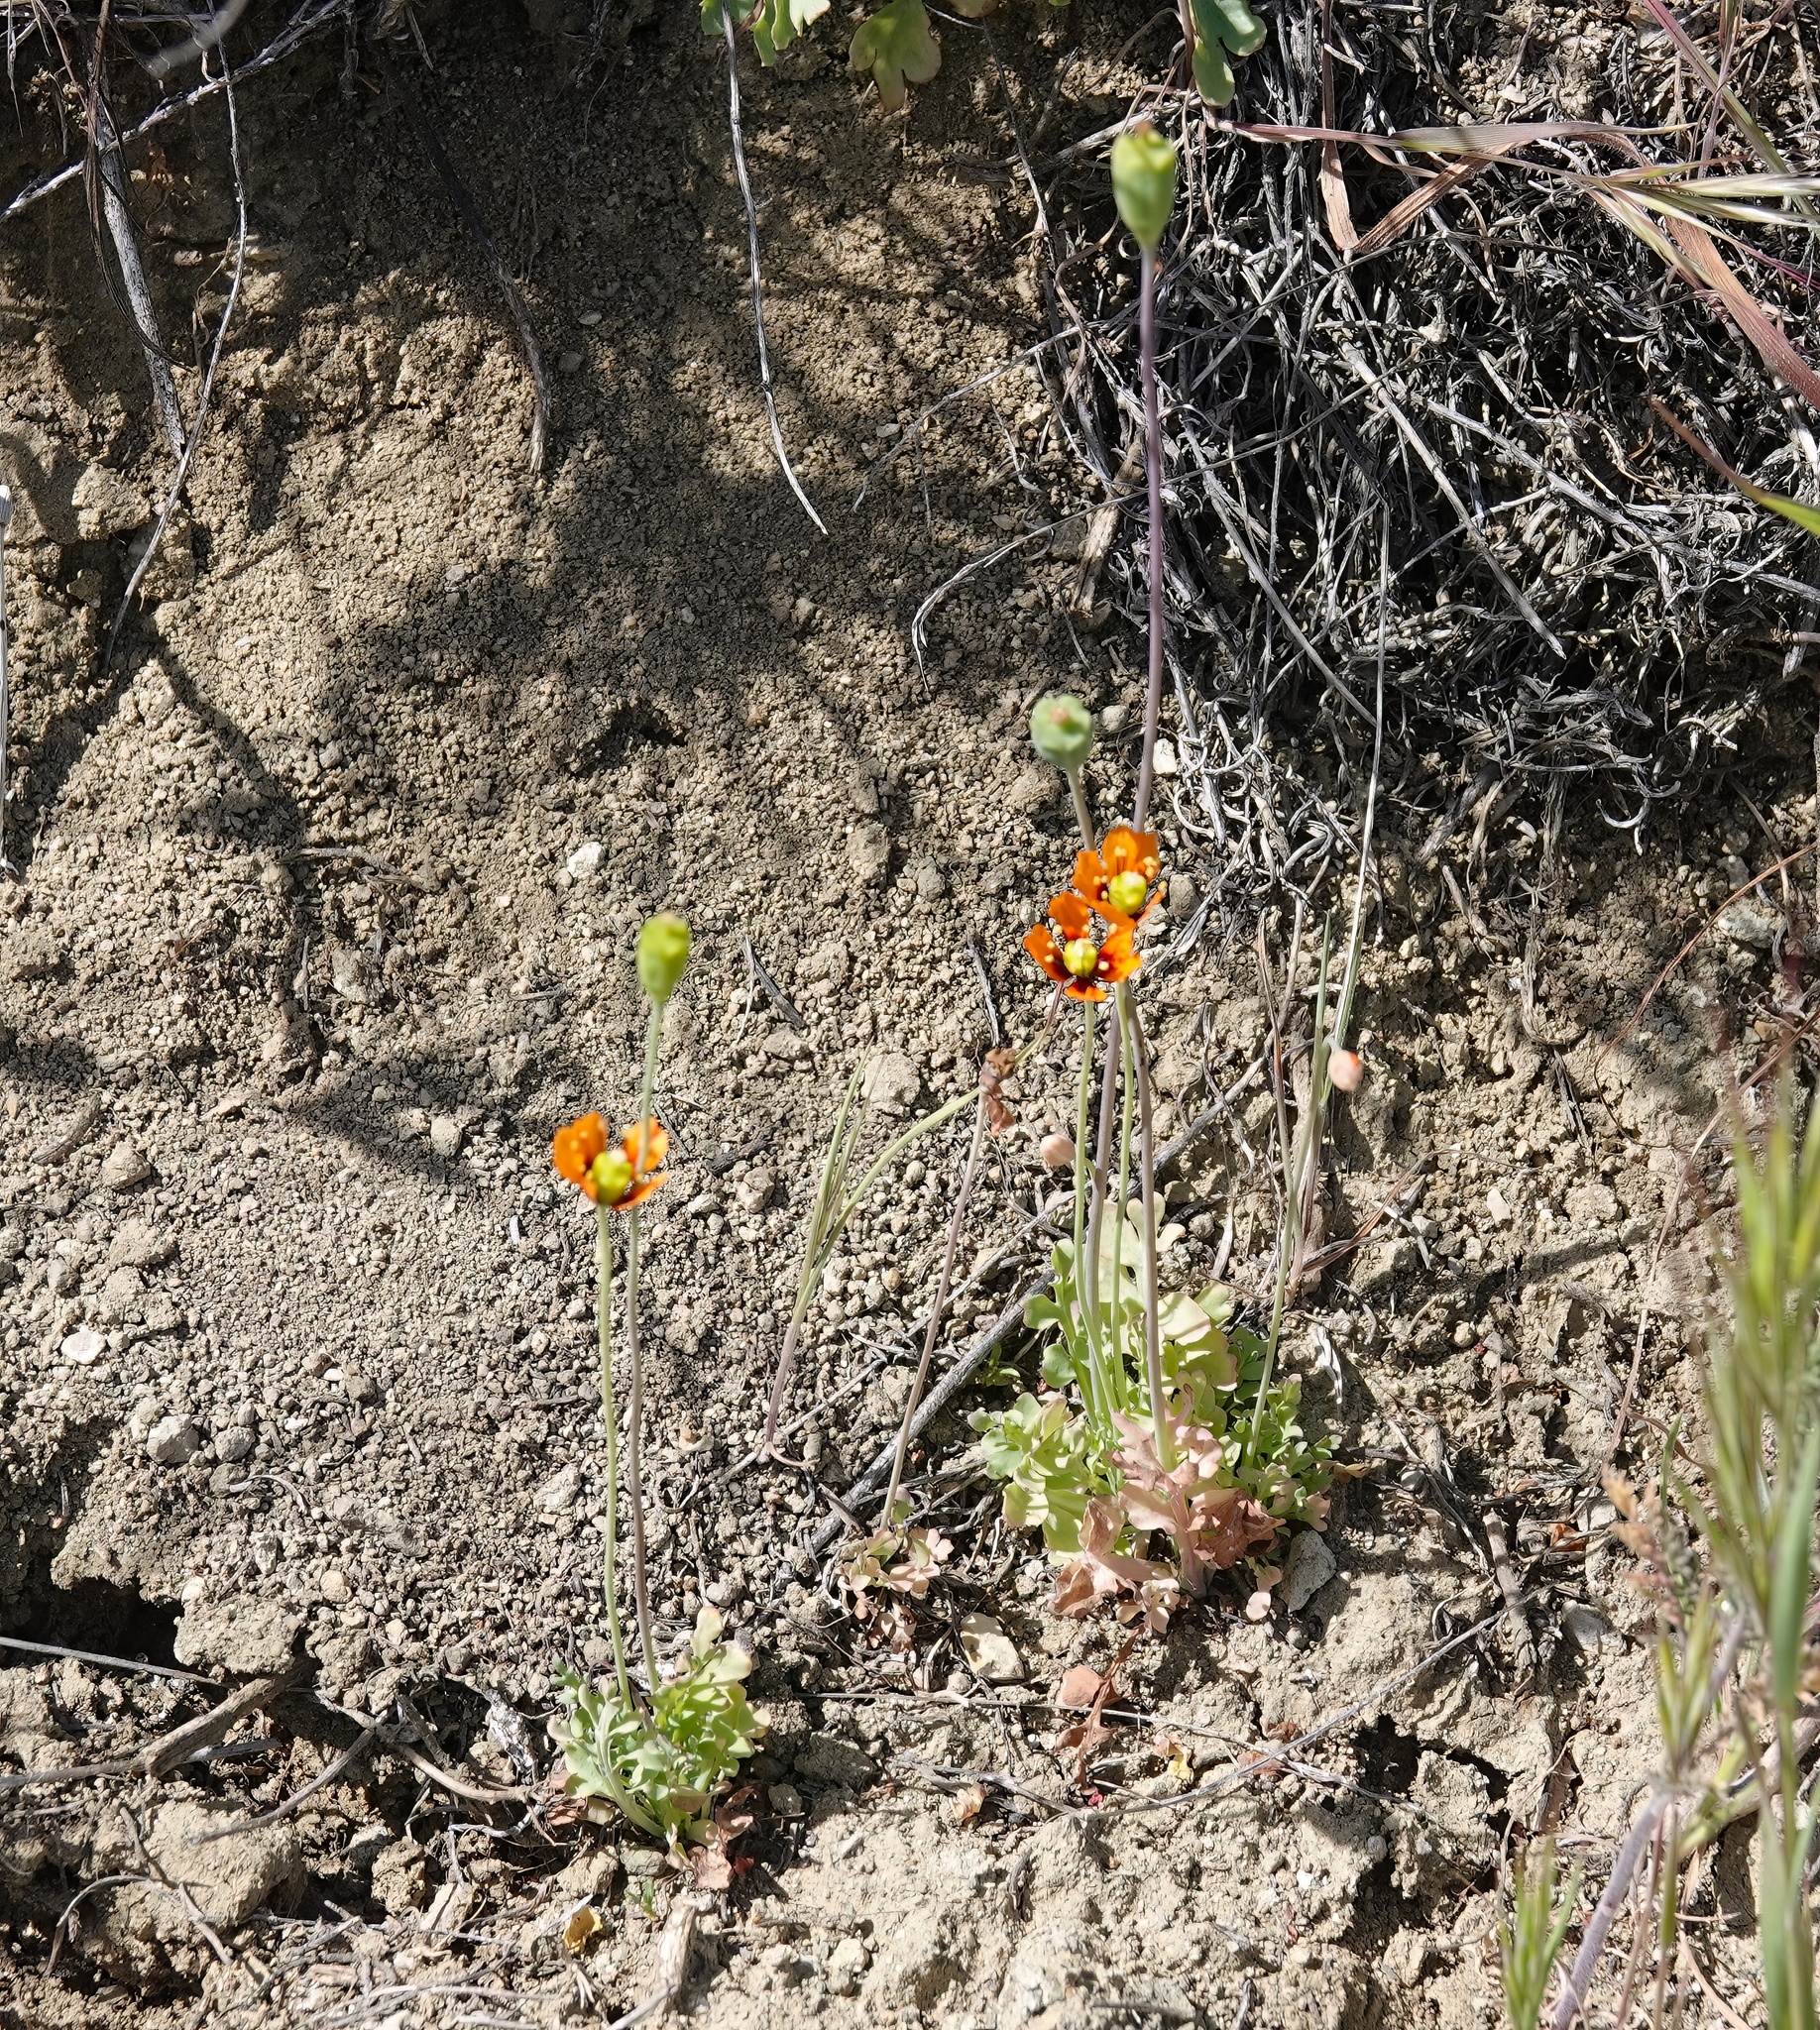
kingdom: Plantae
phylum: Tracheophyta
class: Magnoliopsida
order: Ranunculales
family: Papaveraceae
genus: Stylomecon
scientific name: Stylomecon heterophylla
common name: Flaming-poppy
